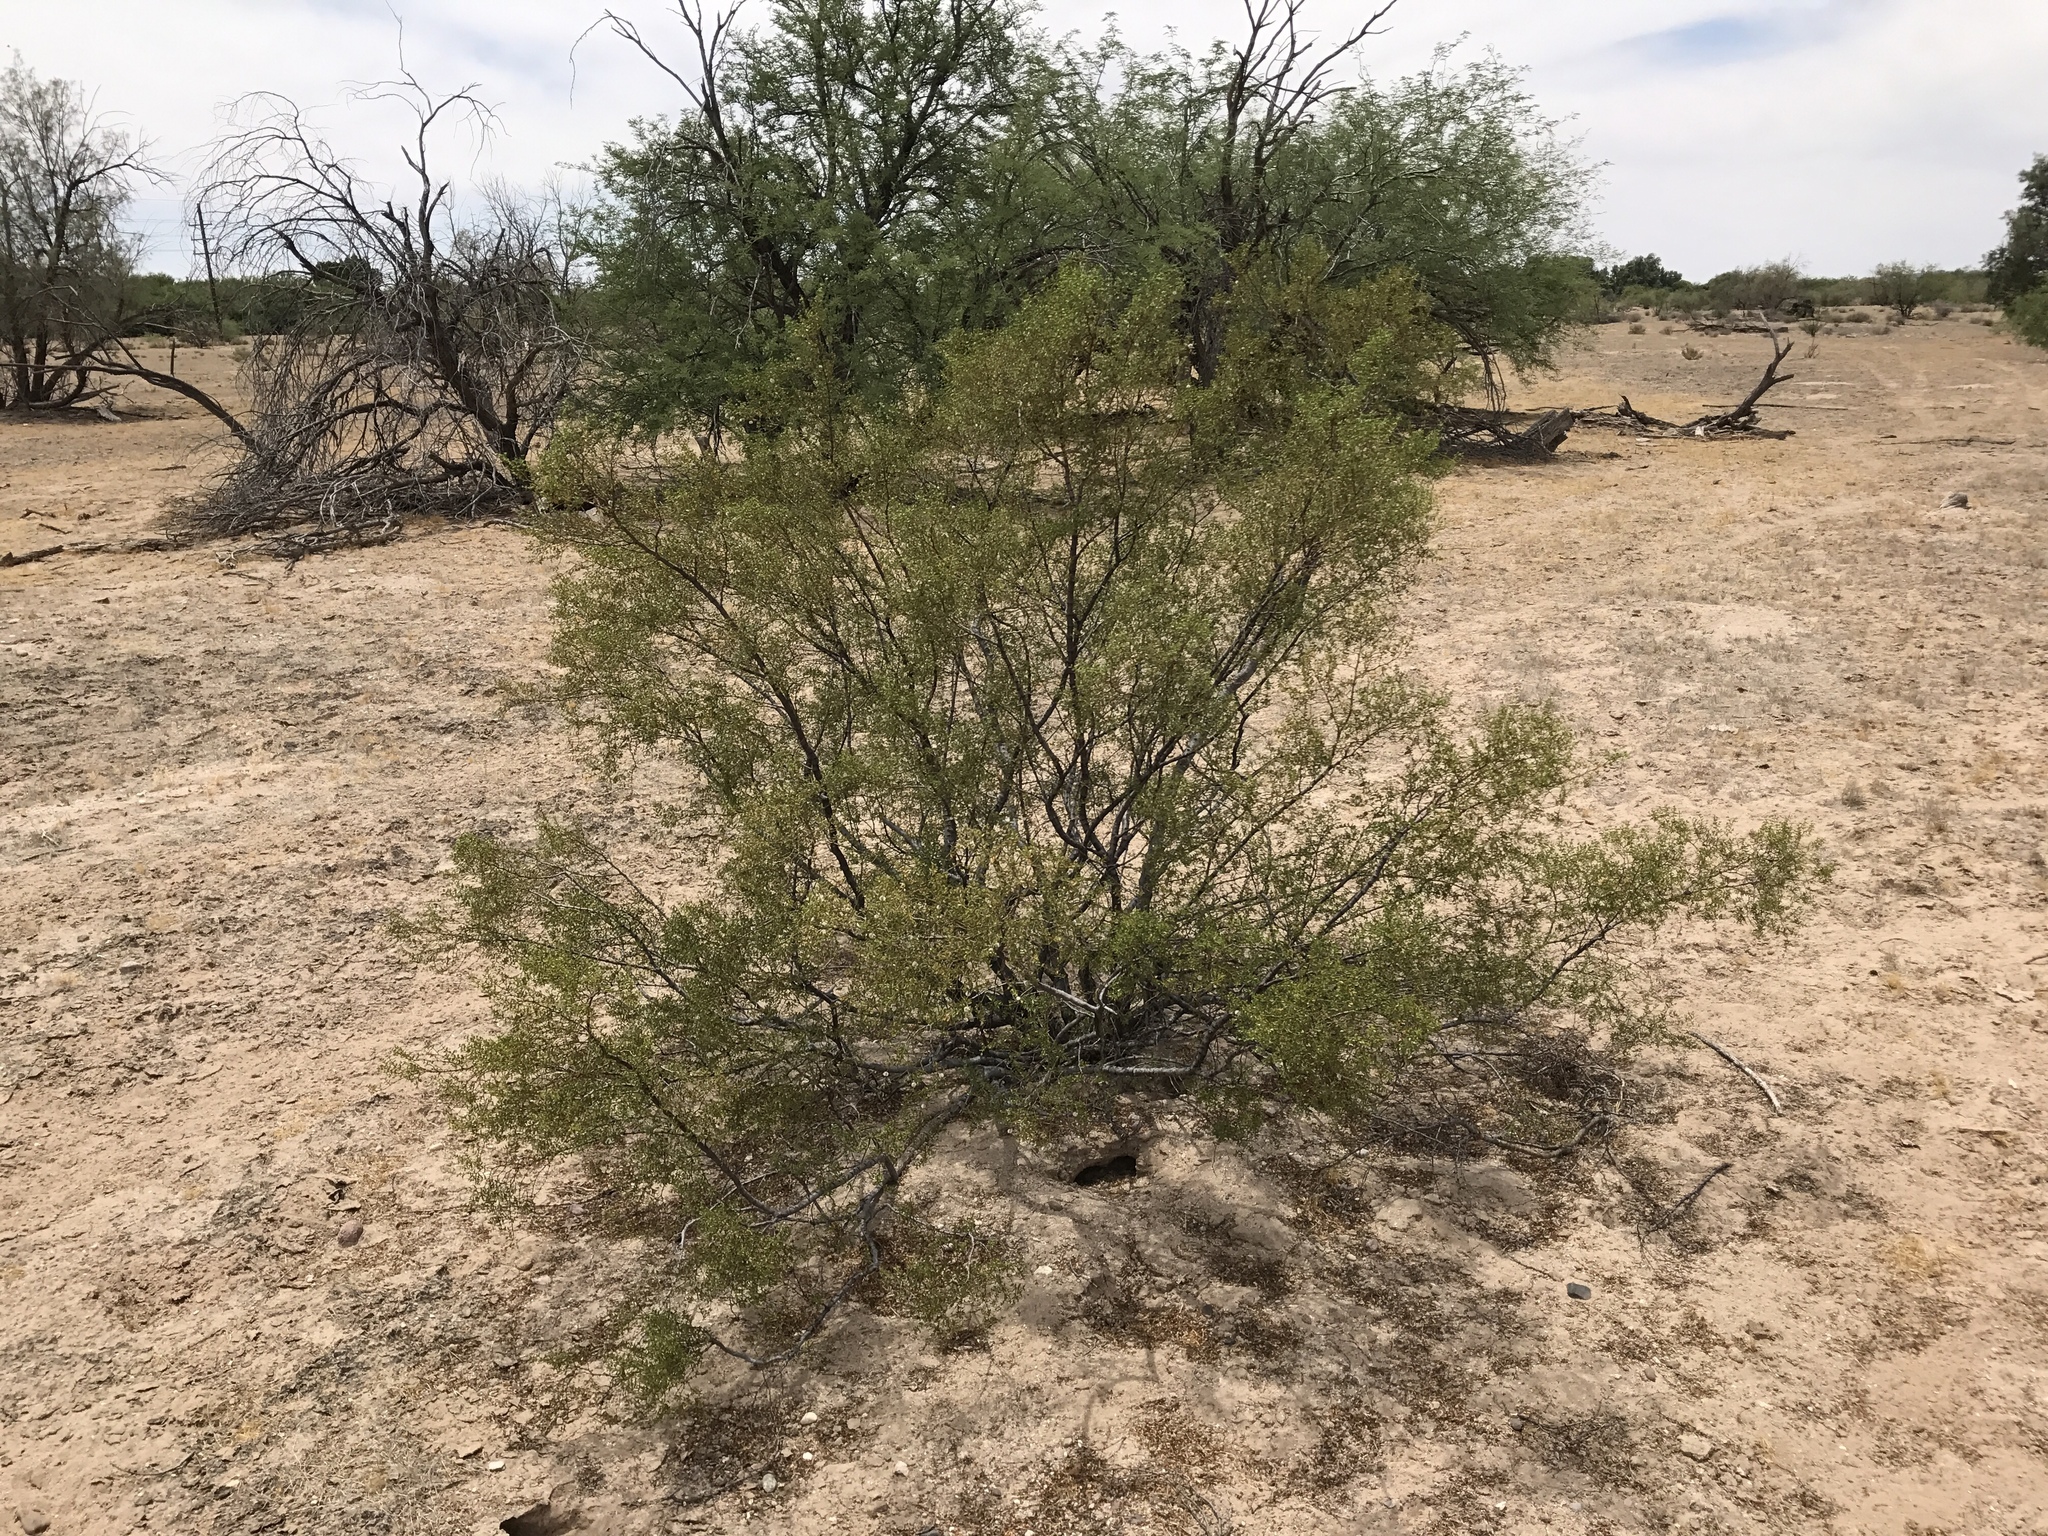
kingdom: Plantae
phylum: Tracheophyta
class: Magnoliopsida
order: Zygophyllales
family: Zygophyllaceae
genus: Larrea
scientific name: Larrea tridentata
